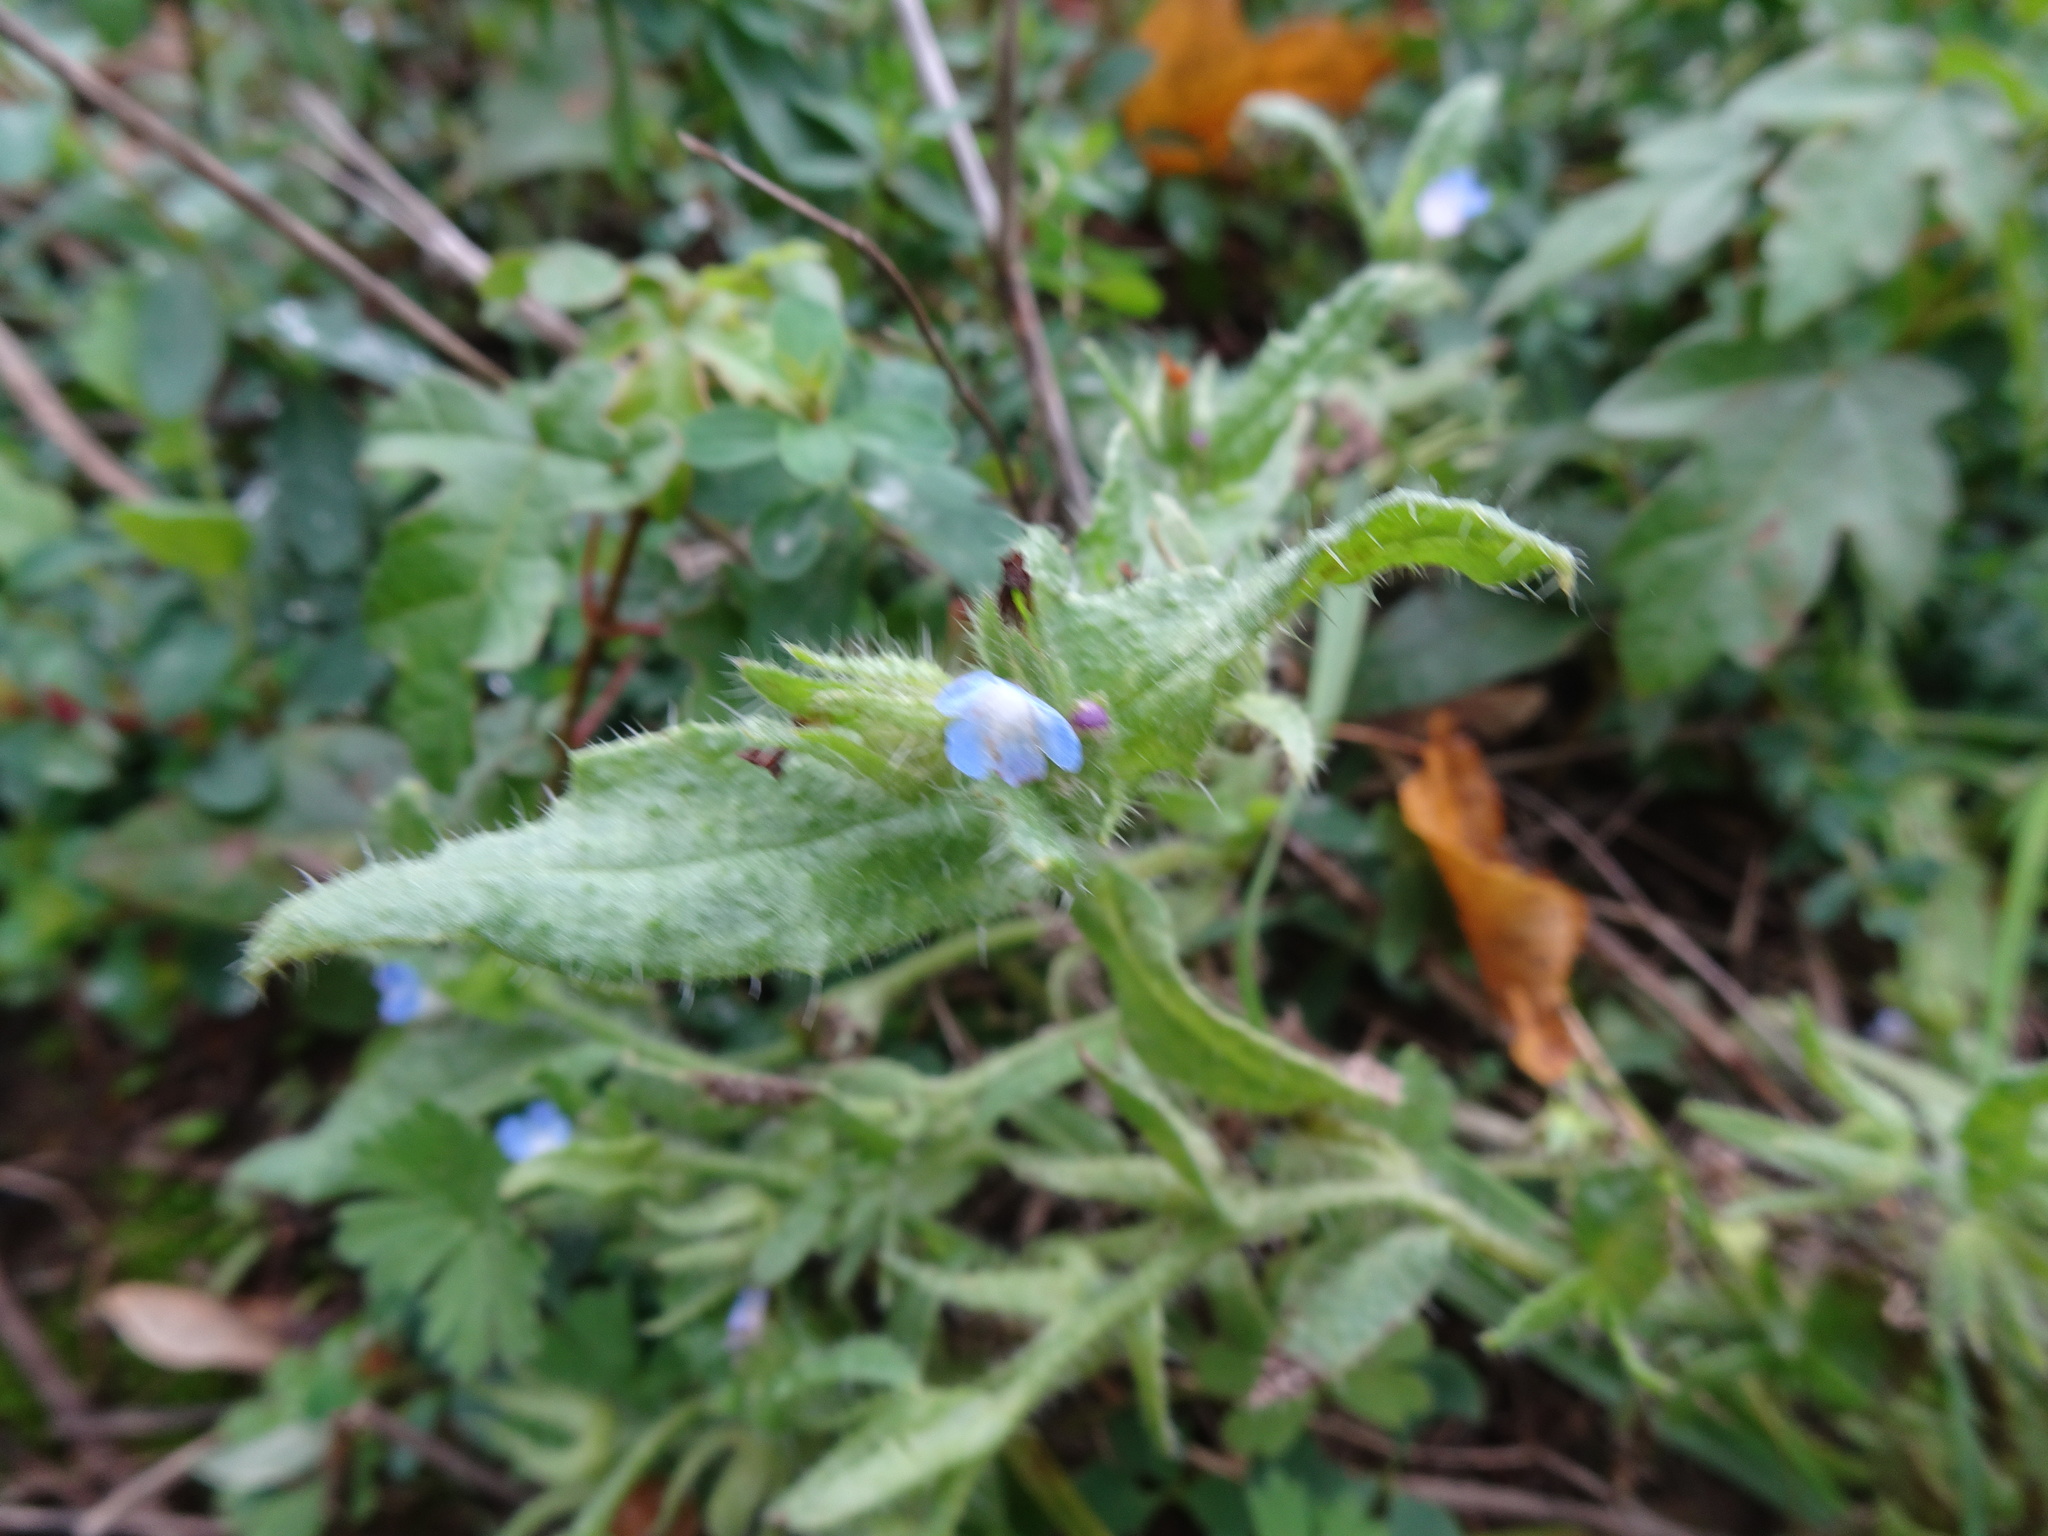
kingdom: Plantae
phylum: Tracheophyta
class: Magnoliopsida
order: Boraginales
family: Boraginaceae
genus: Lycopsis
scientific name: Lycopsis arvensis
